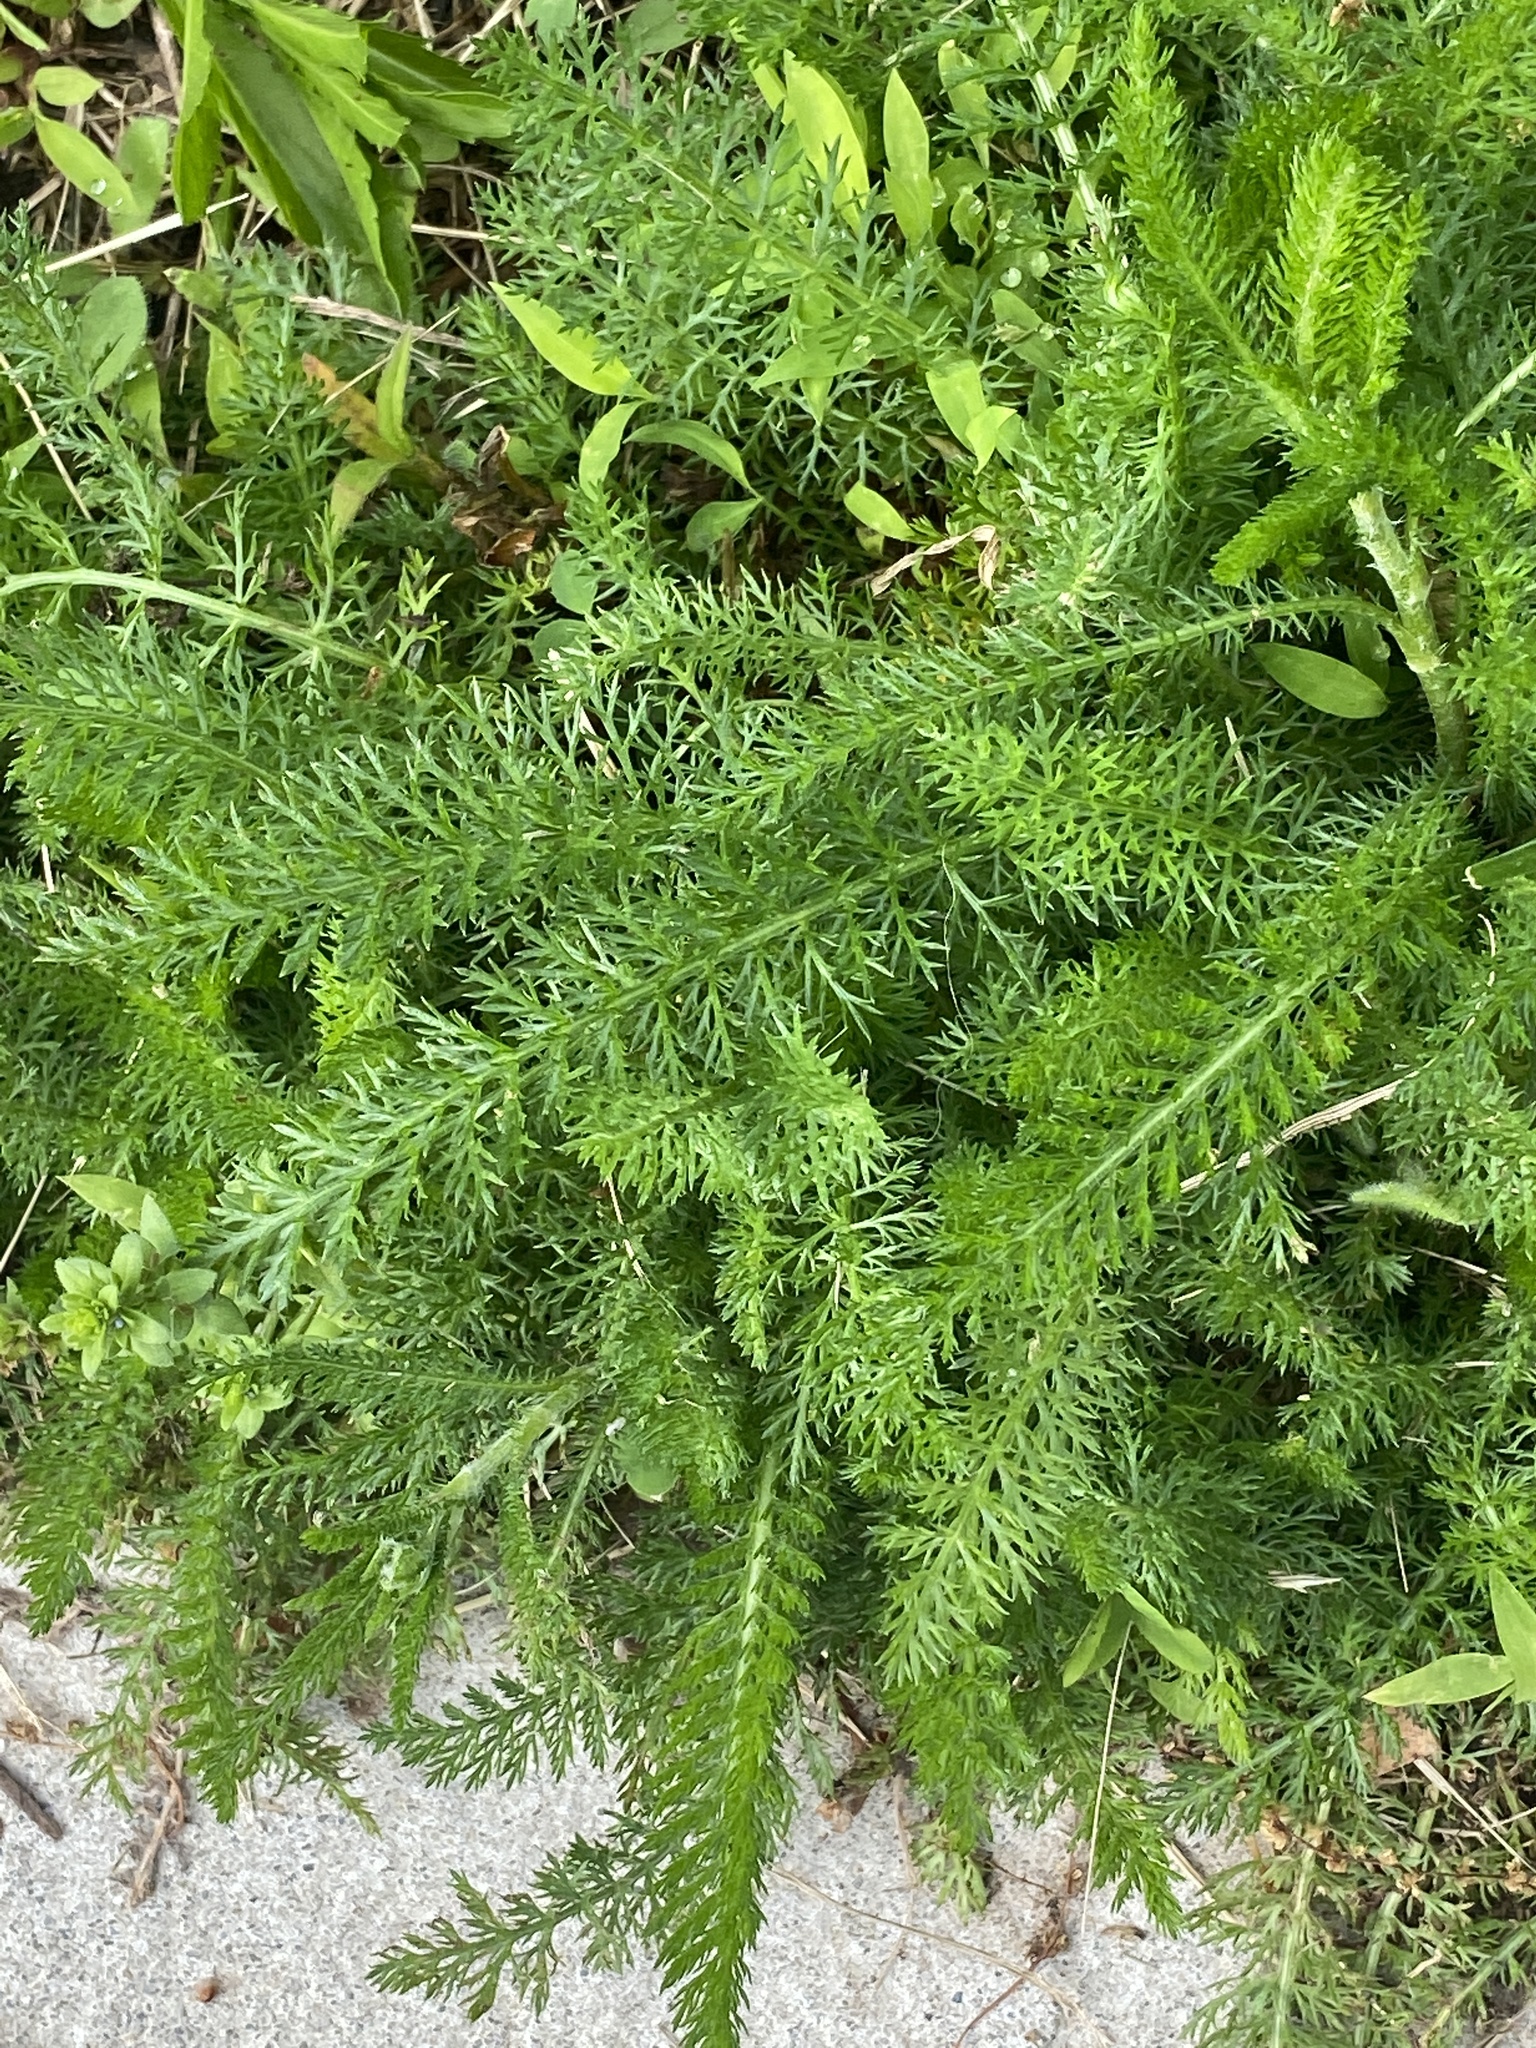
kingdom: Plantae
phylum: Tracheophyta
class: Magnoliopsida
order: Asterales
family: Asteraceae
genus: Achillea
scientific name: Achillea millefolium
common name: Yarrow
